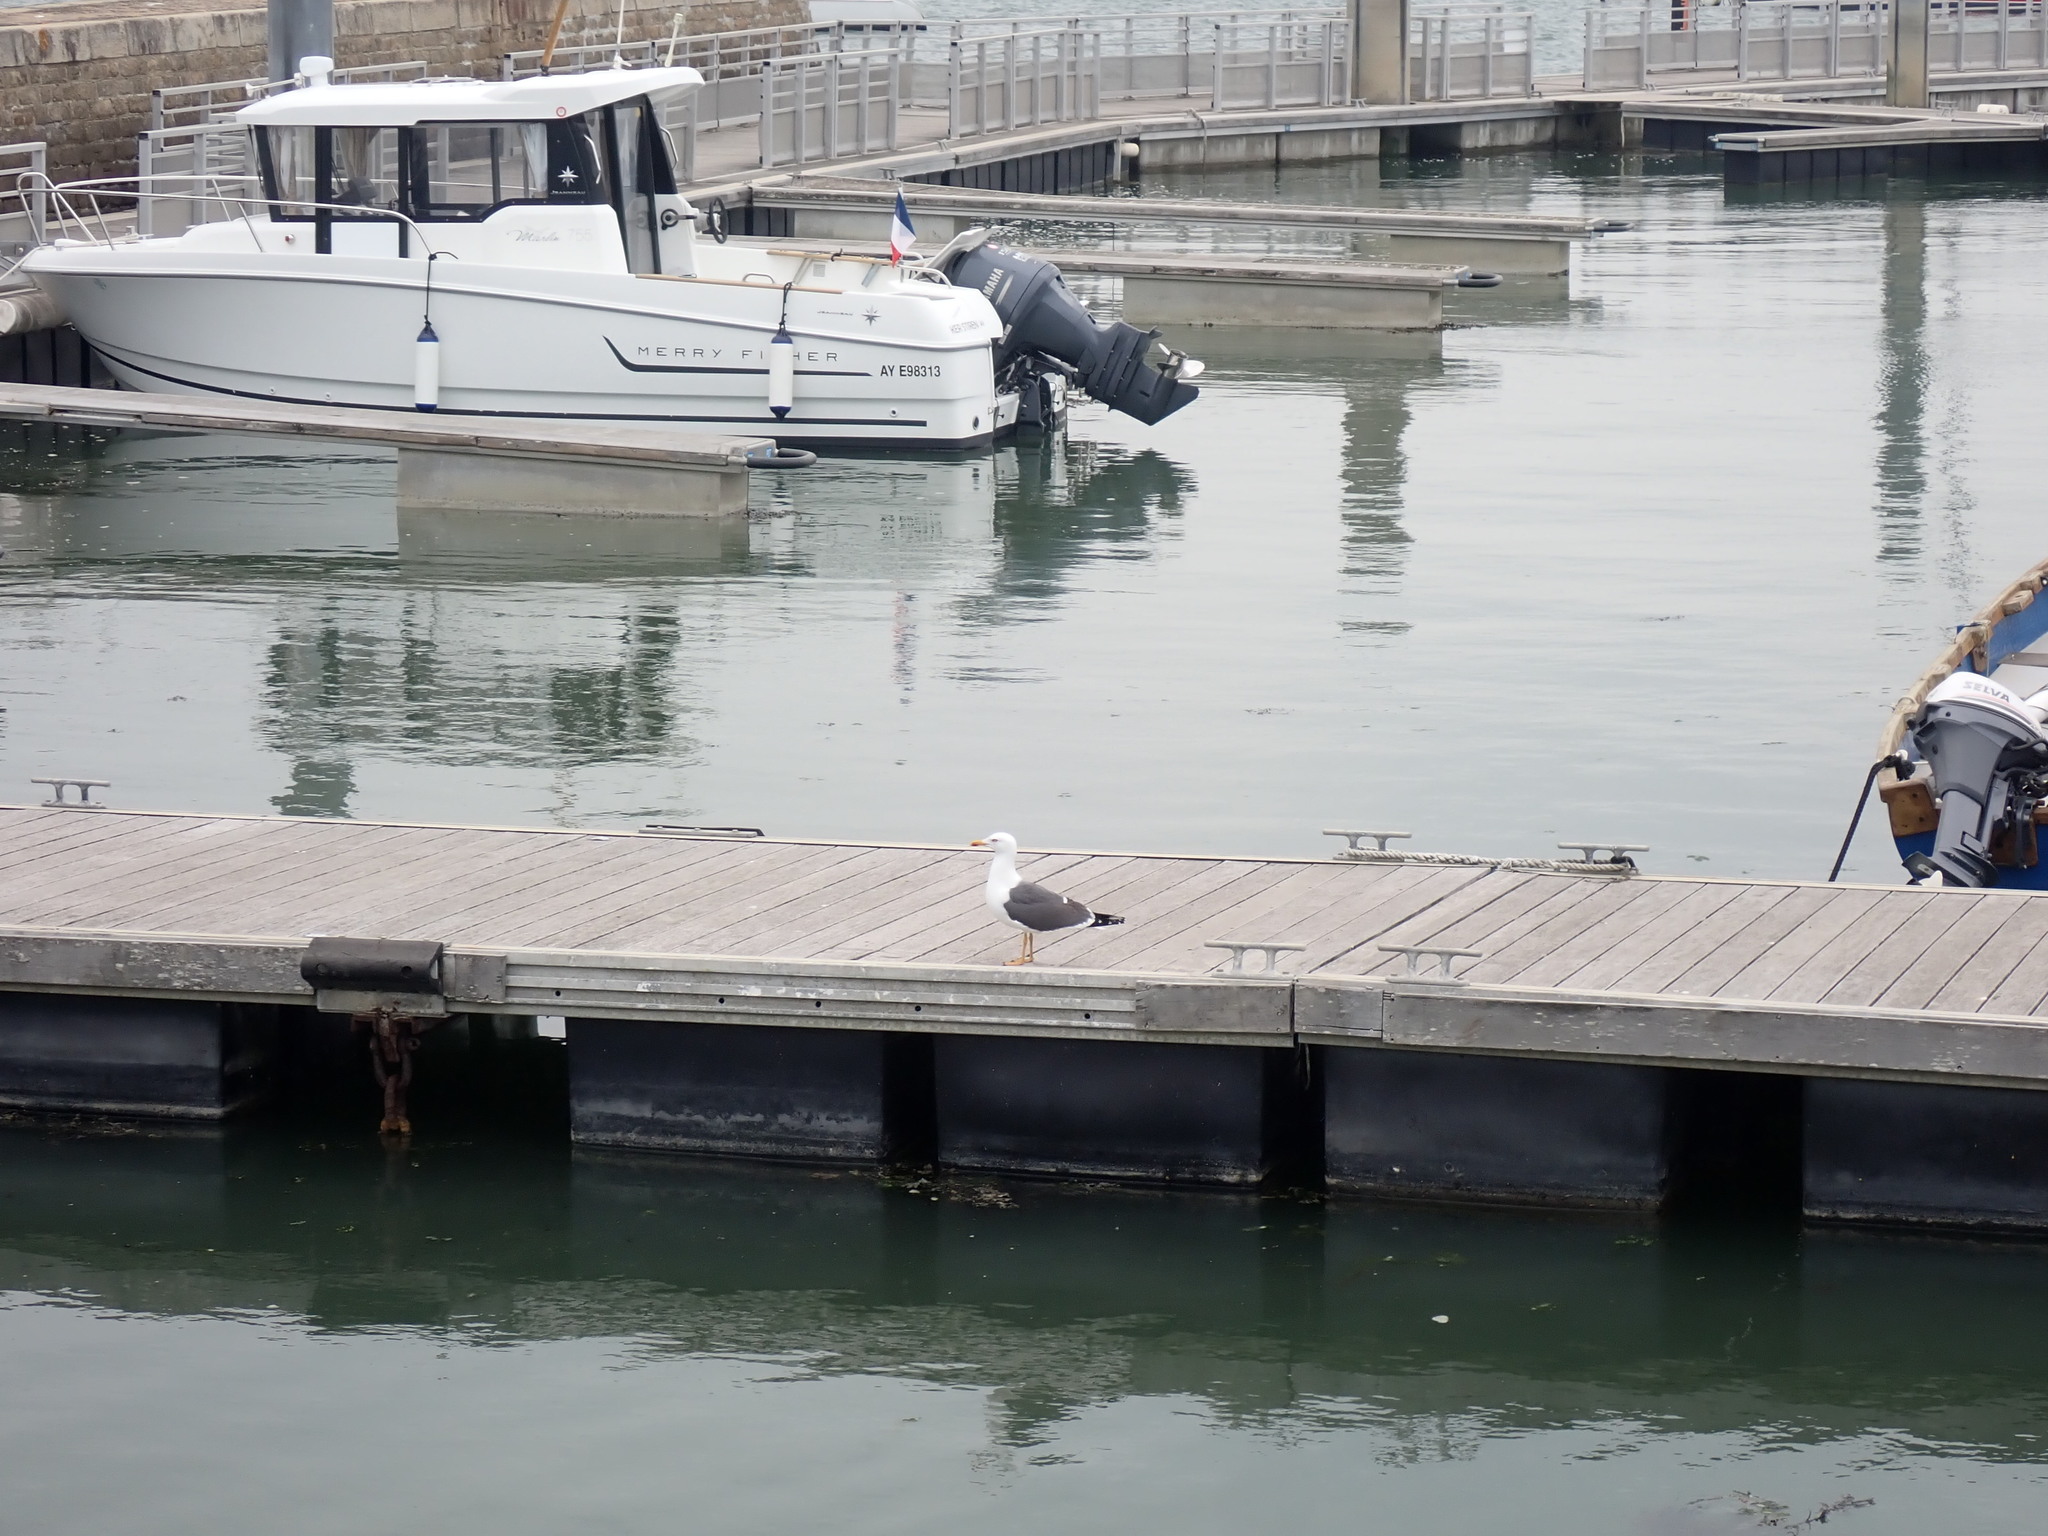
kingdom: Animalia
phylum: Chordata
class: Aves
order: Charadriiformes
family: Laridae
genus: Larus
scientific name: Larus fuscus
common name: Lesser black-backed gull
